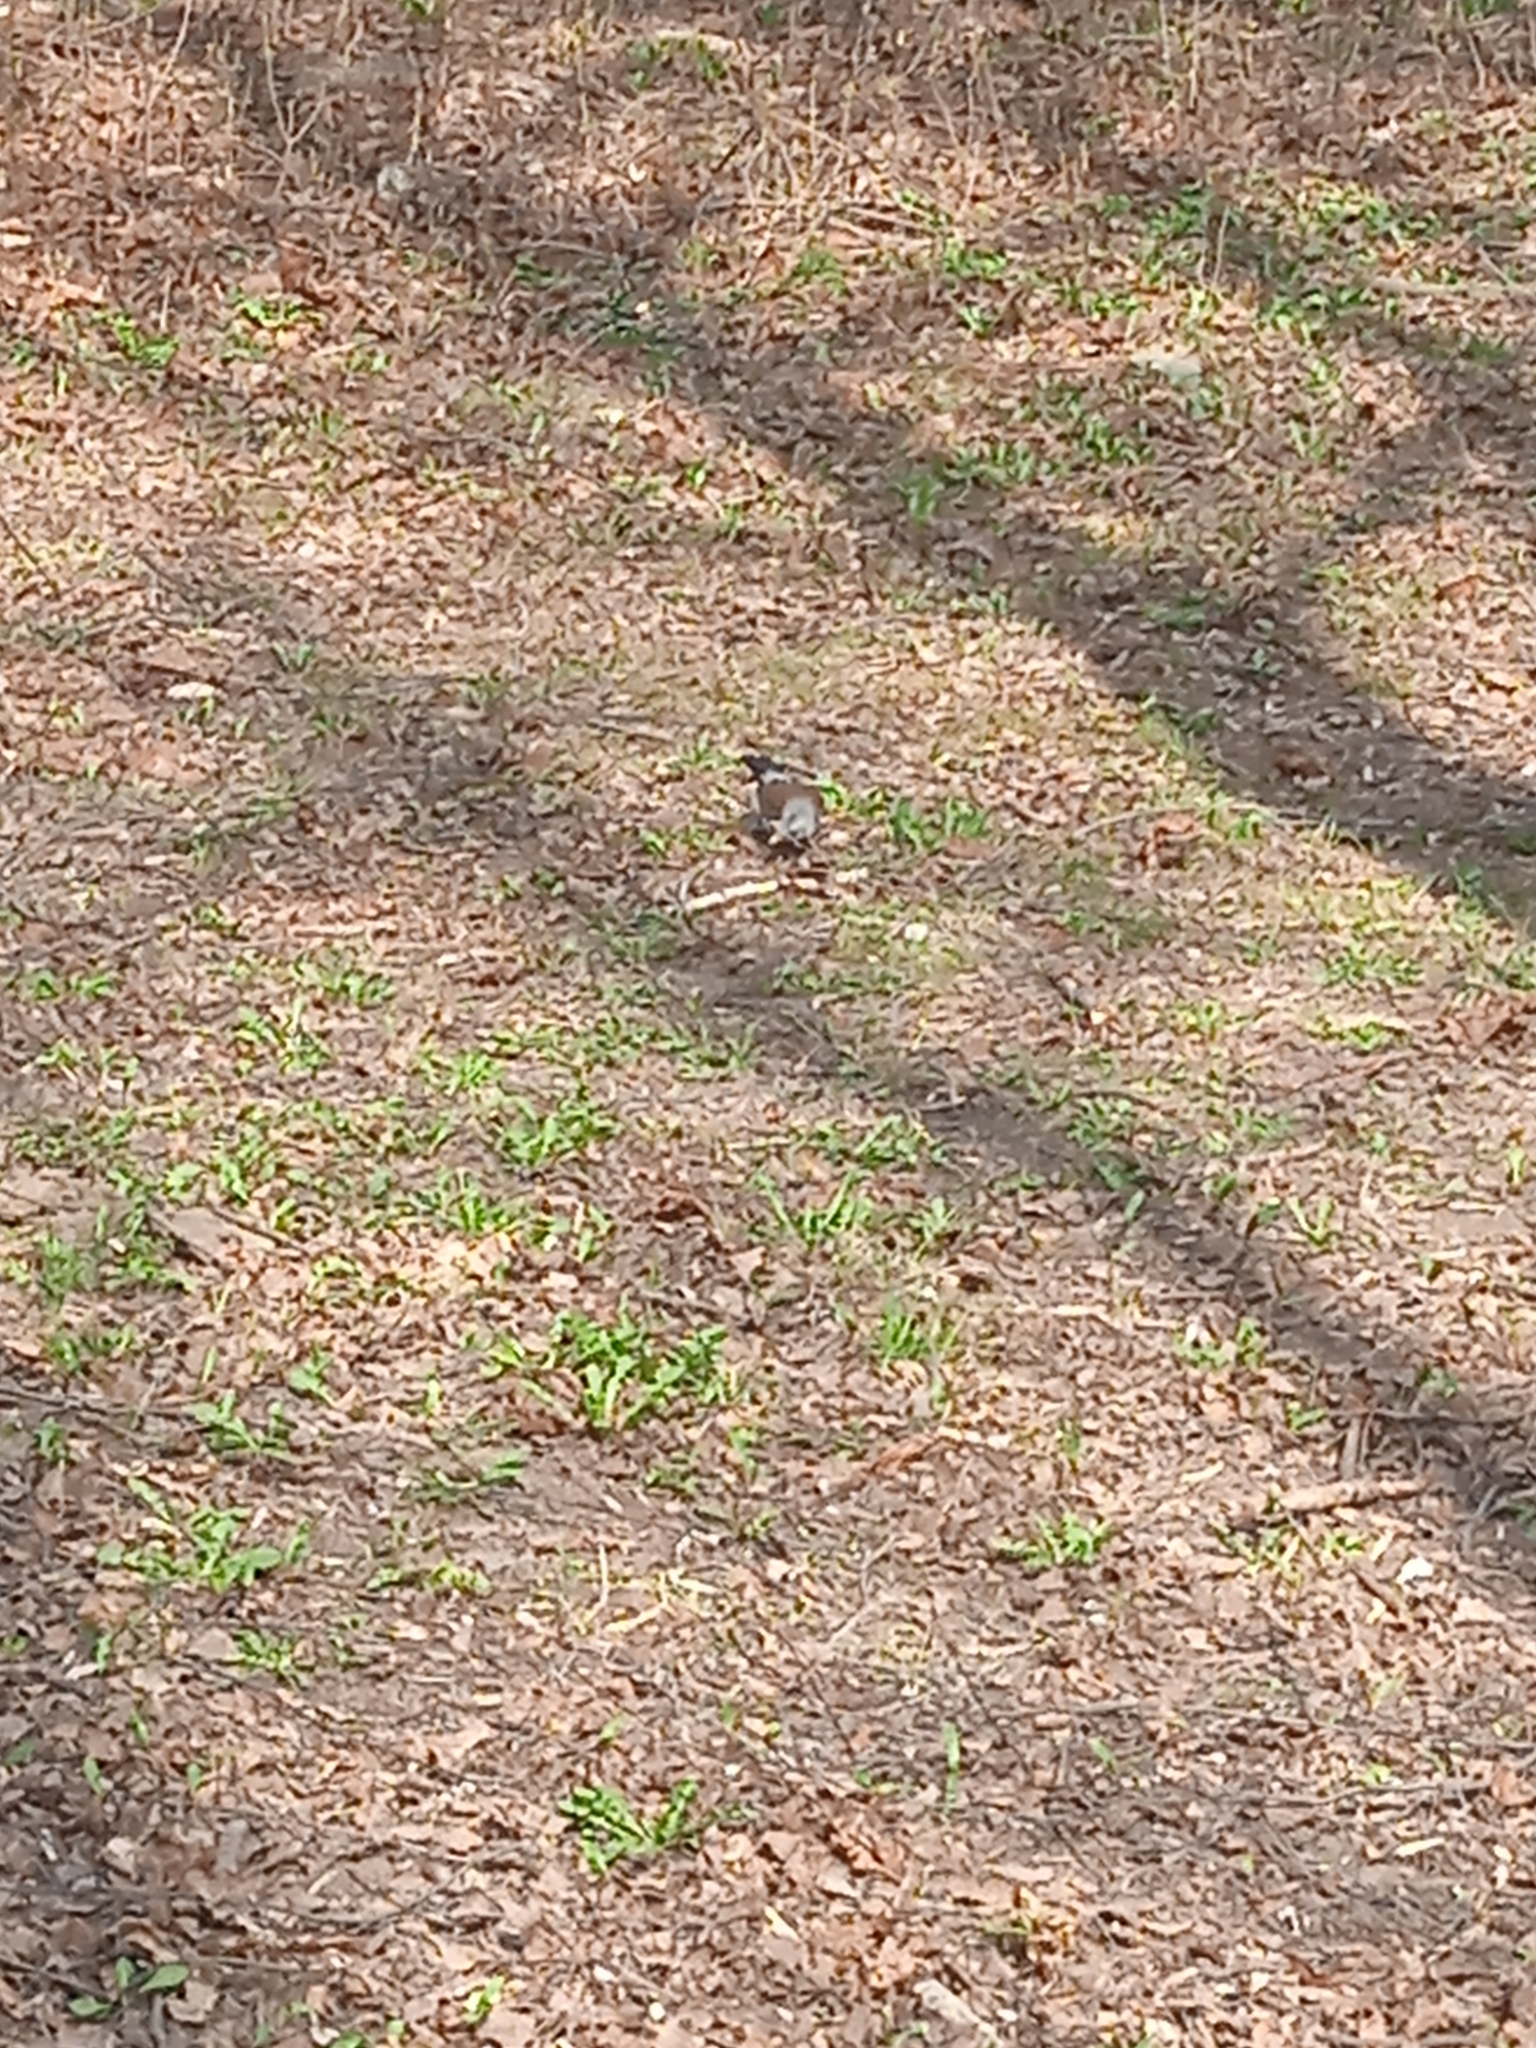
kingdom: Animalia
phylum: Chordata
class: Aves
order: Passeriformes
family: Turdidae
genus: Turdus
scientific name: Turdus pilaris
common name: Fieldfare
